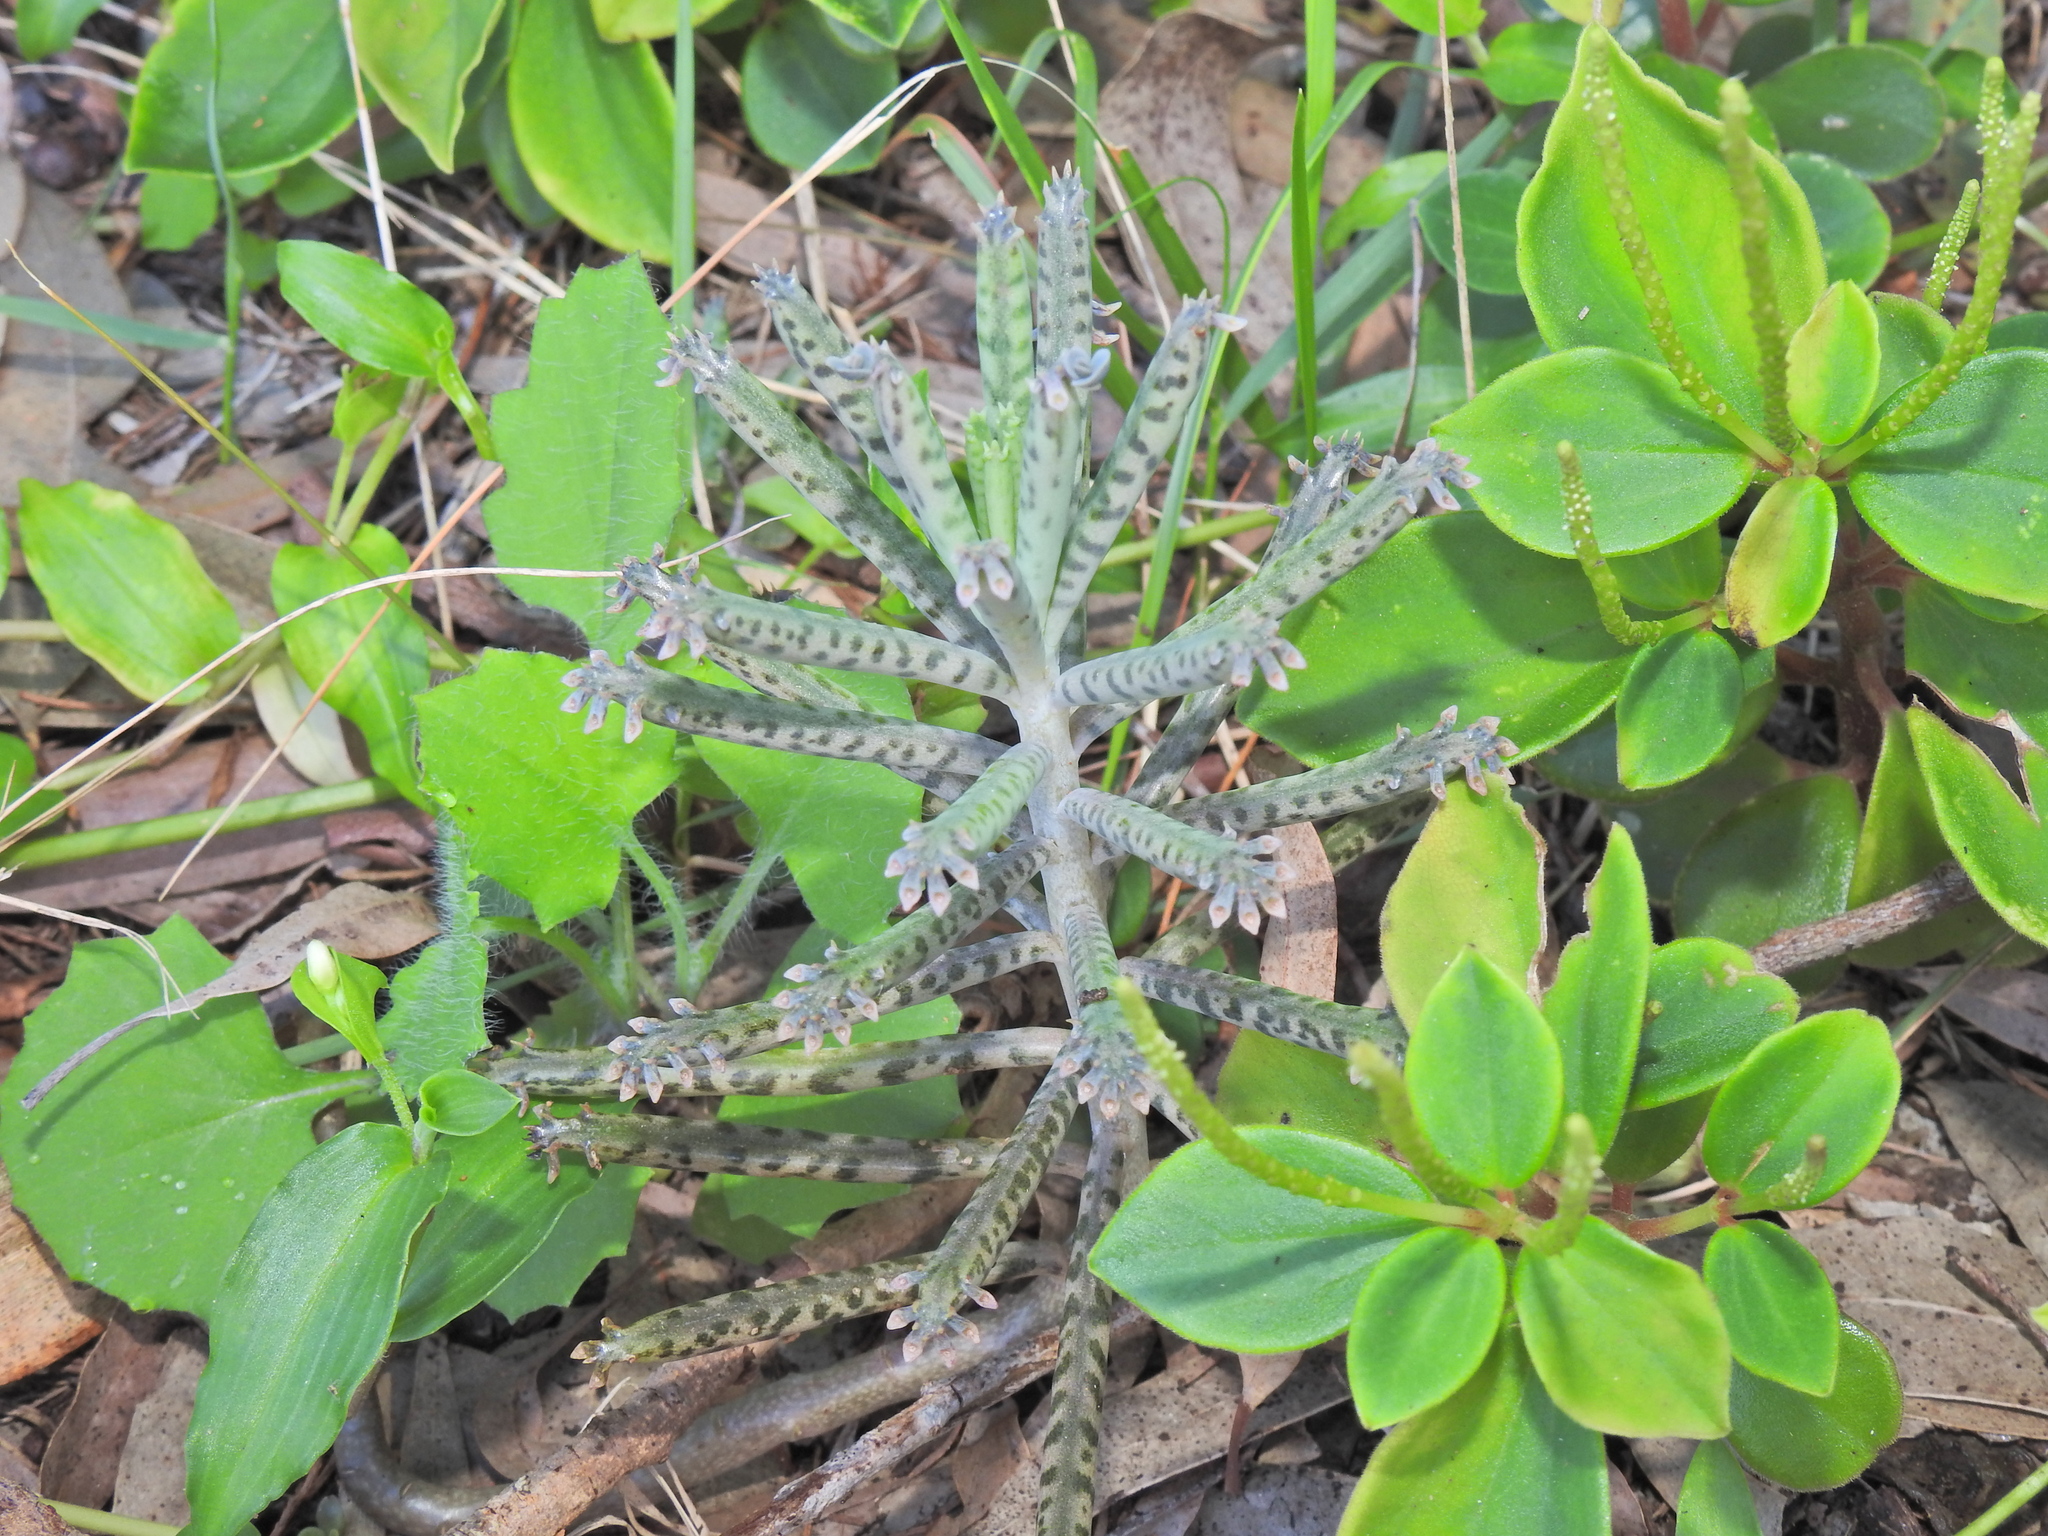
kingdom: Plantae
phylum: Tracheophyta
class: Magnoliopsida
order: Saxifragales
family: Crassulaceae
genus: Kalanchoe
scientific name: Kalanchoe delagoensis
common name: Chandelier plant
